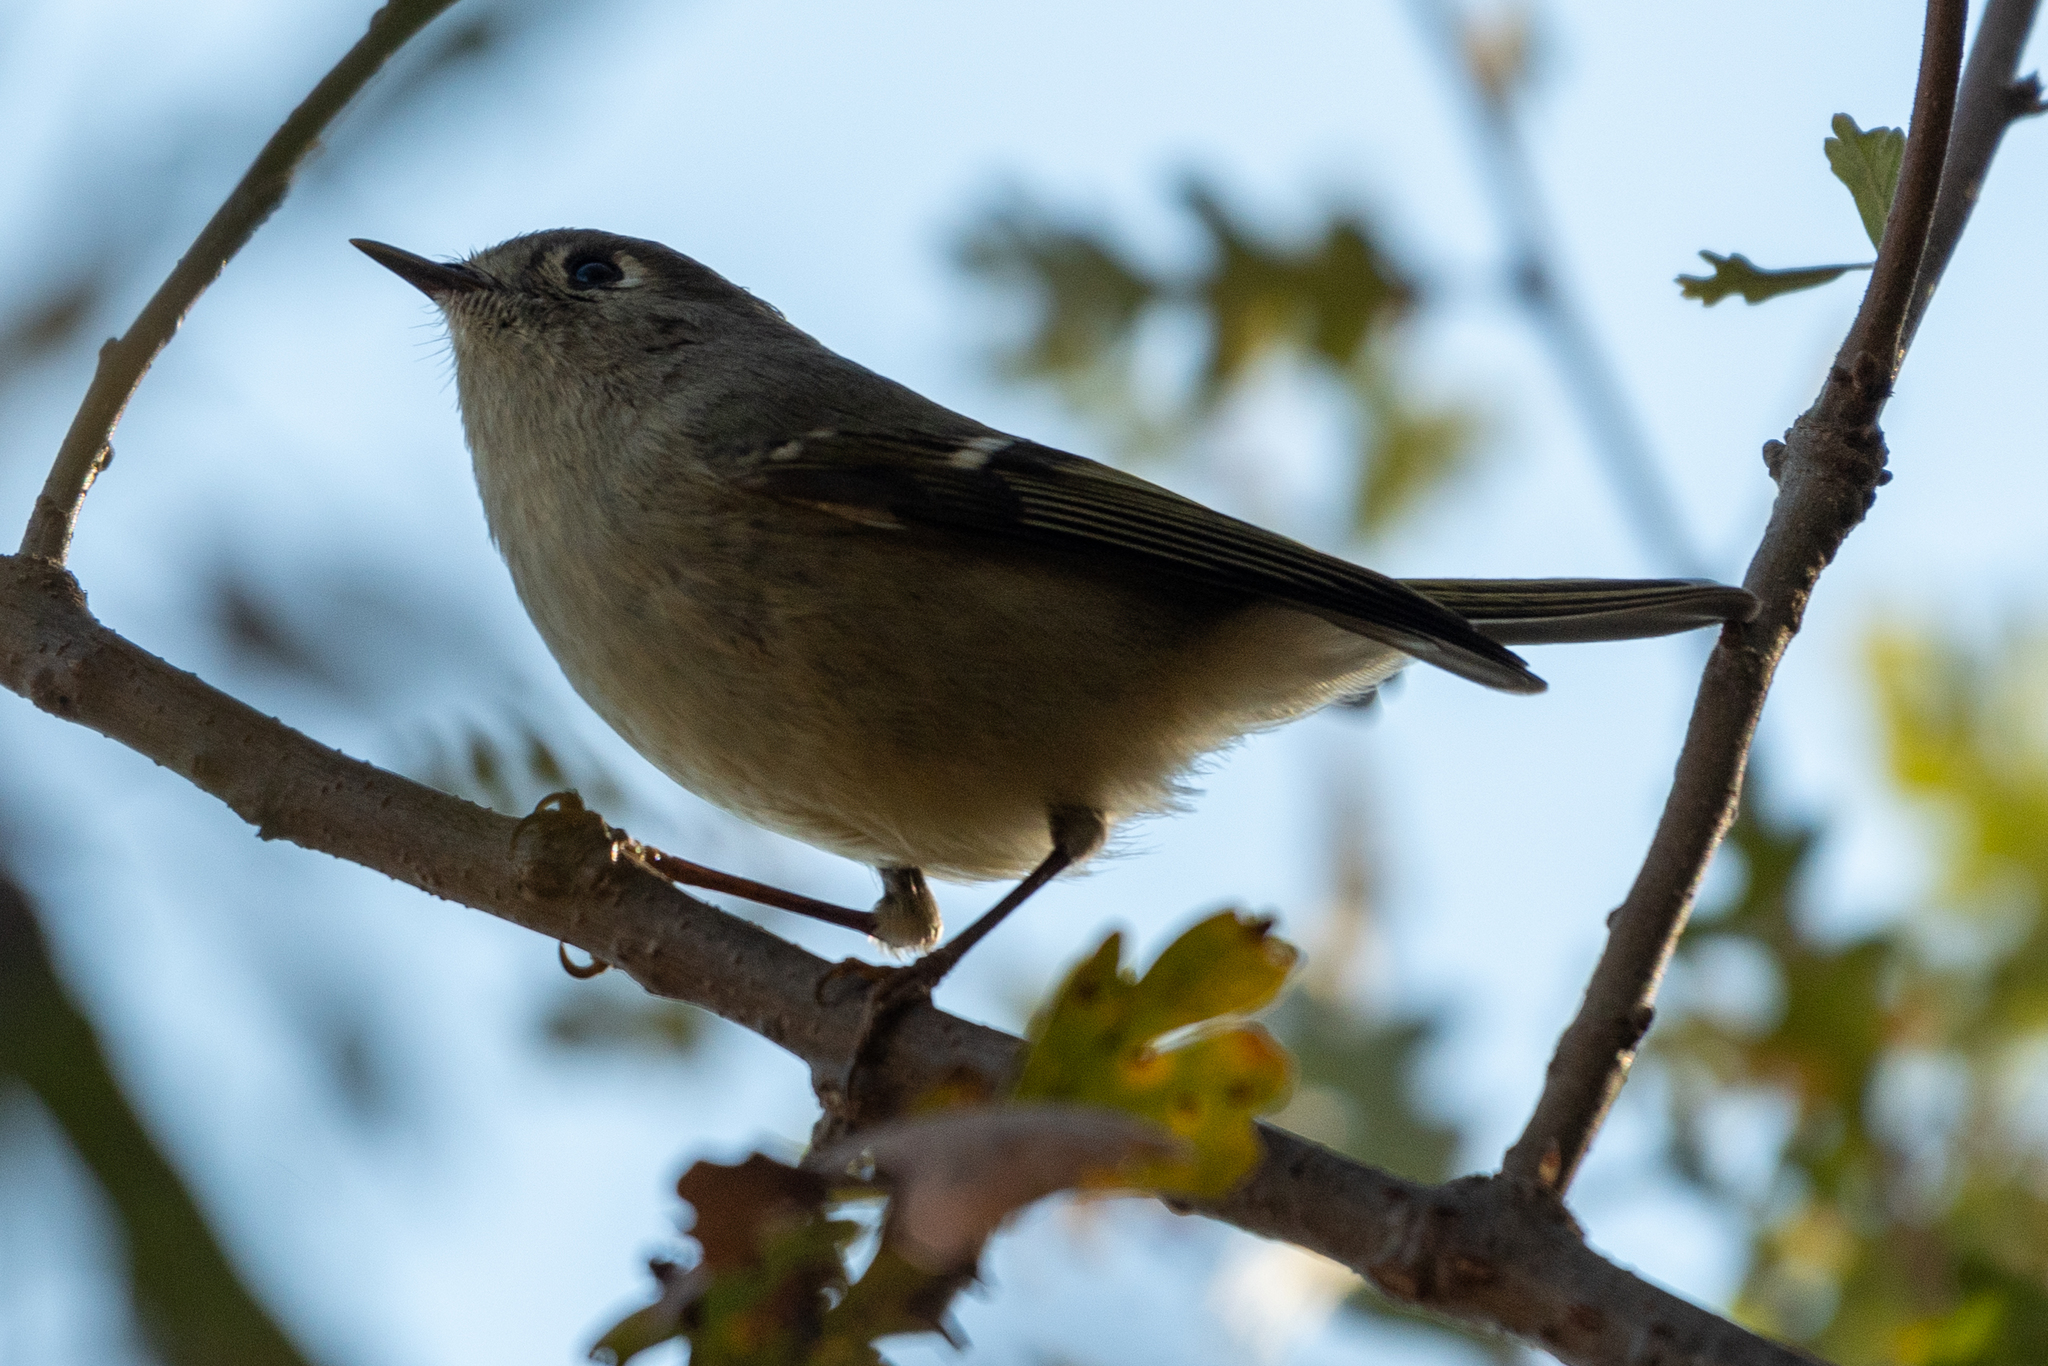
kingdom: Animalia
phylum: Chordata
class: Aves
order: Passeriformes
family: Regulidae
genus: Regulus
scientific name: Regulus calendula
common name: Ruby-crowned kinglet
